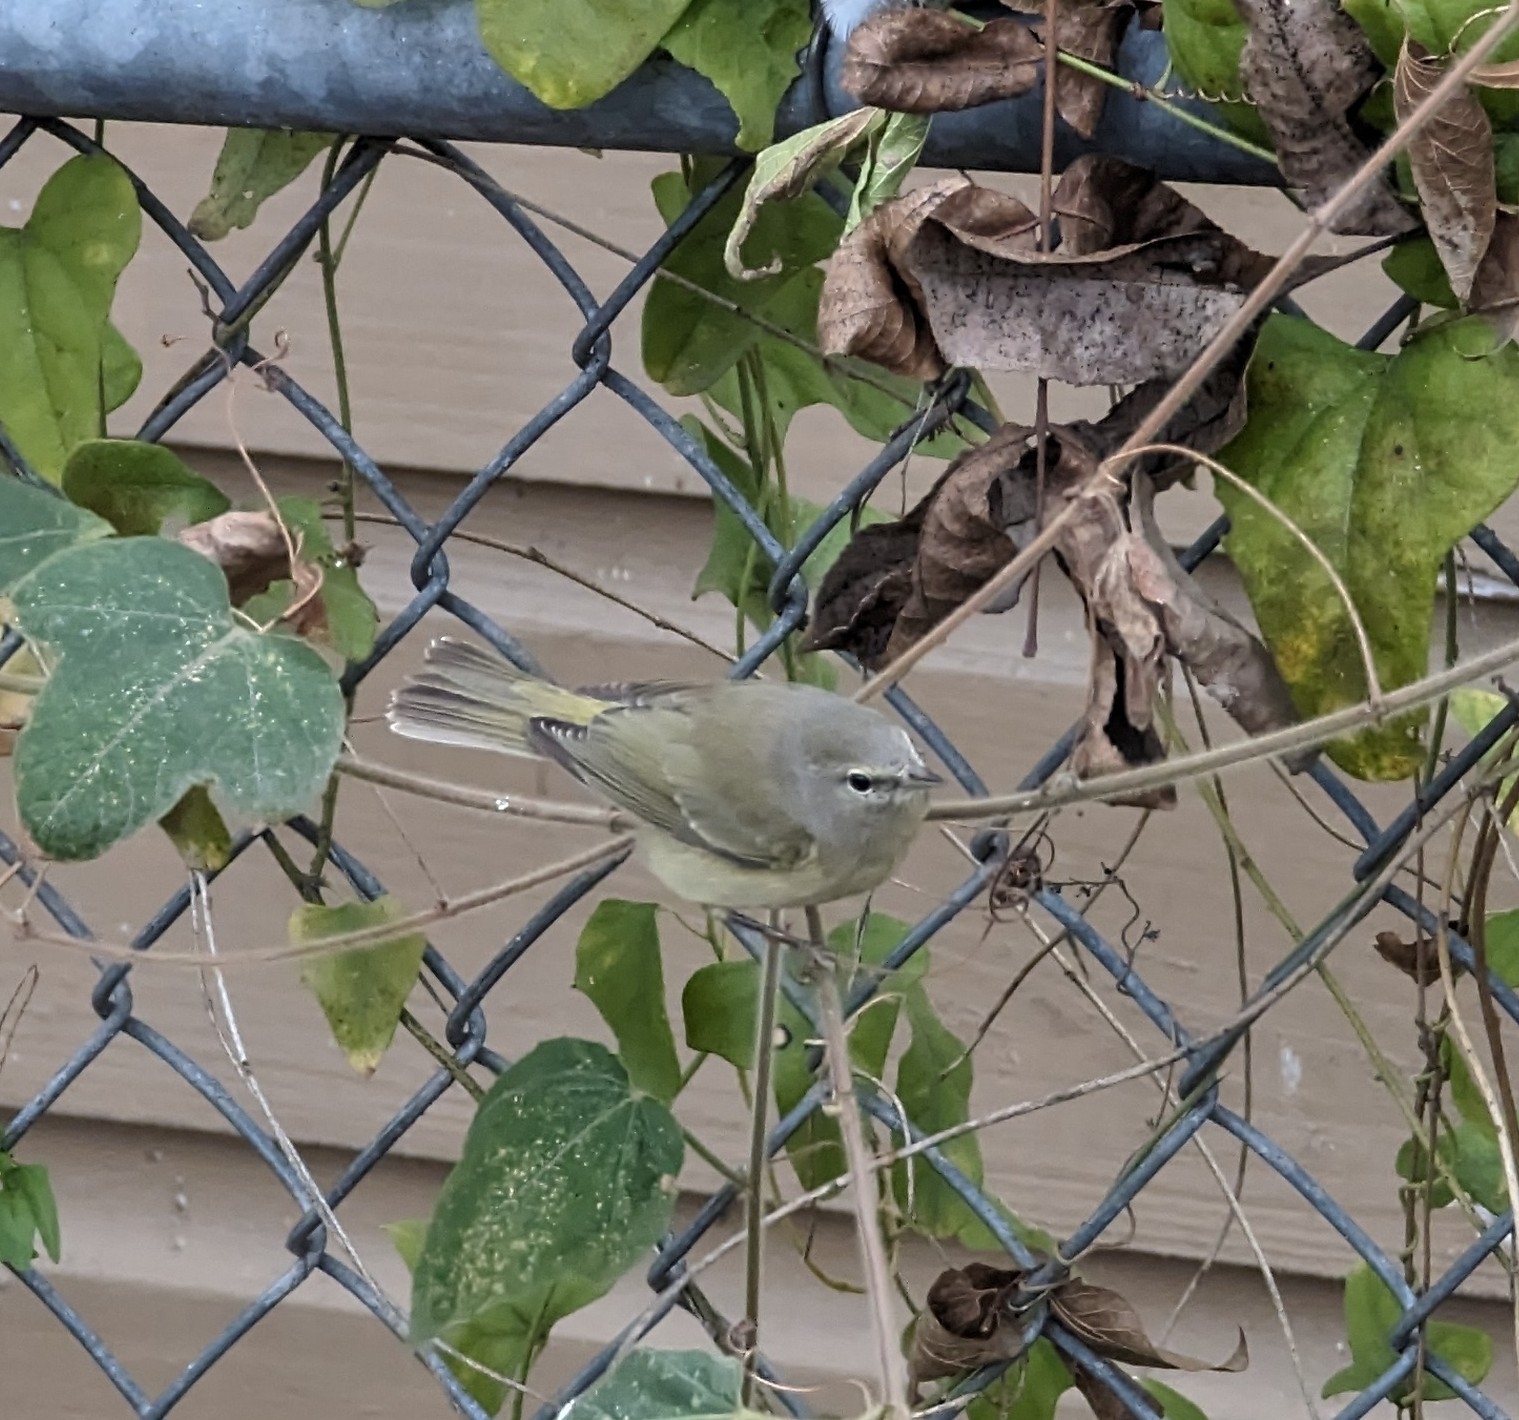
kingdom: Animalia
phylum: Chordata
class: Aves
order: Passeriformes
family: Parulidae
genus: Leiothlypis
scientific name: Leiothlypis celata
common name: Orange-crowned warbler
